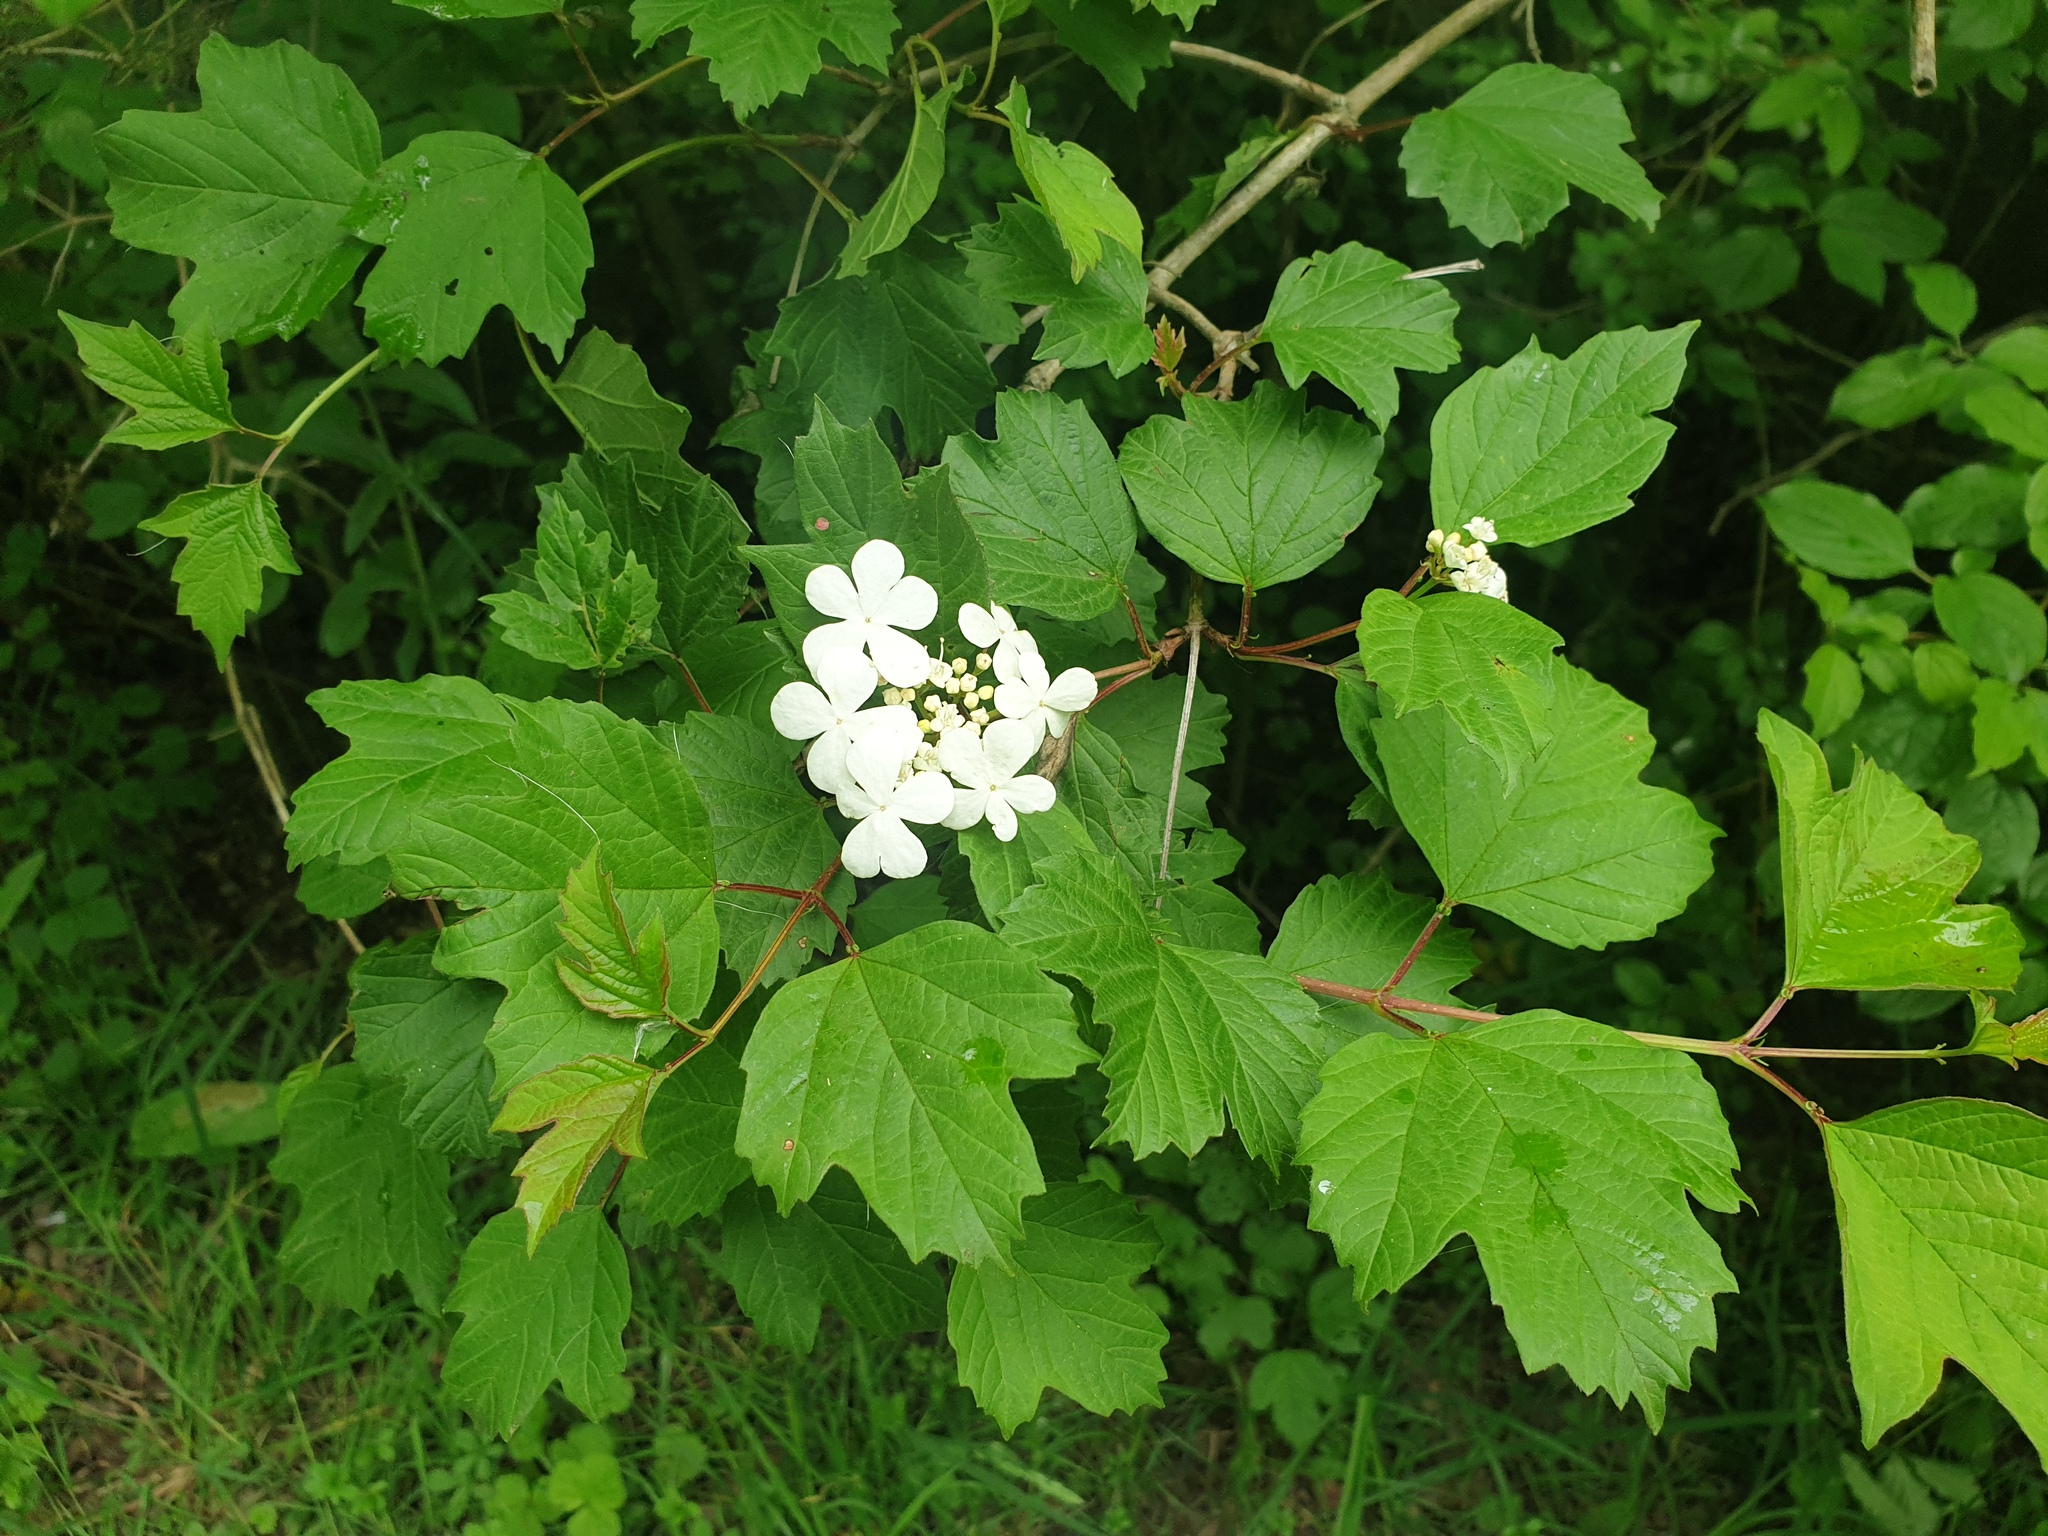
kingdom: Plantae
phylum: Tracheophyta
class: Magnoliopsida
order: Dipsacales
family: Viburnaceae
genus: Viburnum
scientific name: Viburnum opulus
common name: Guelder-rose
